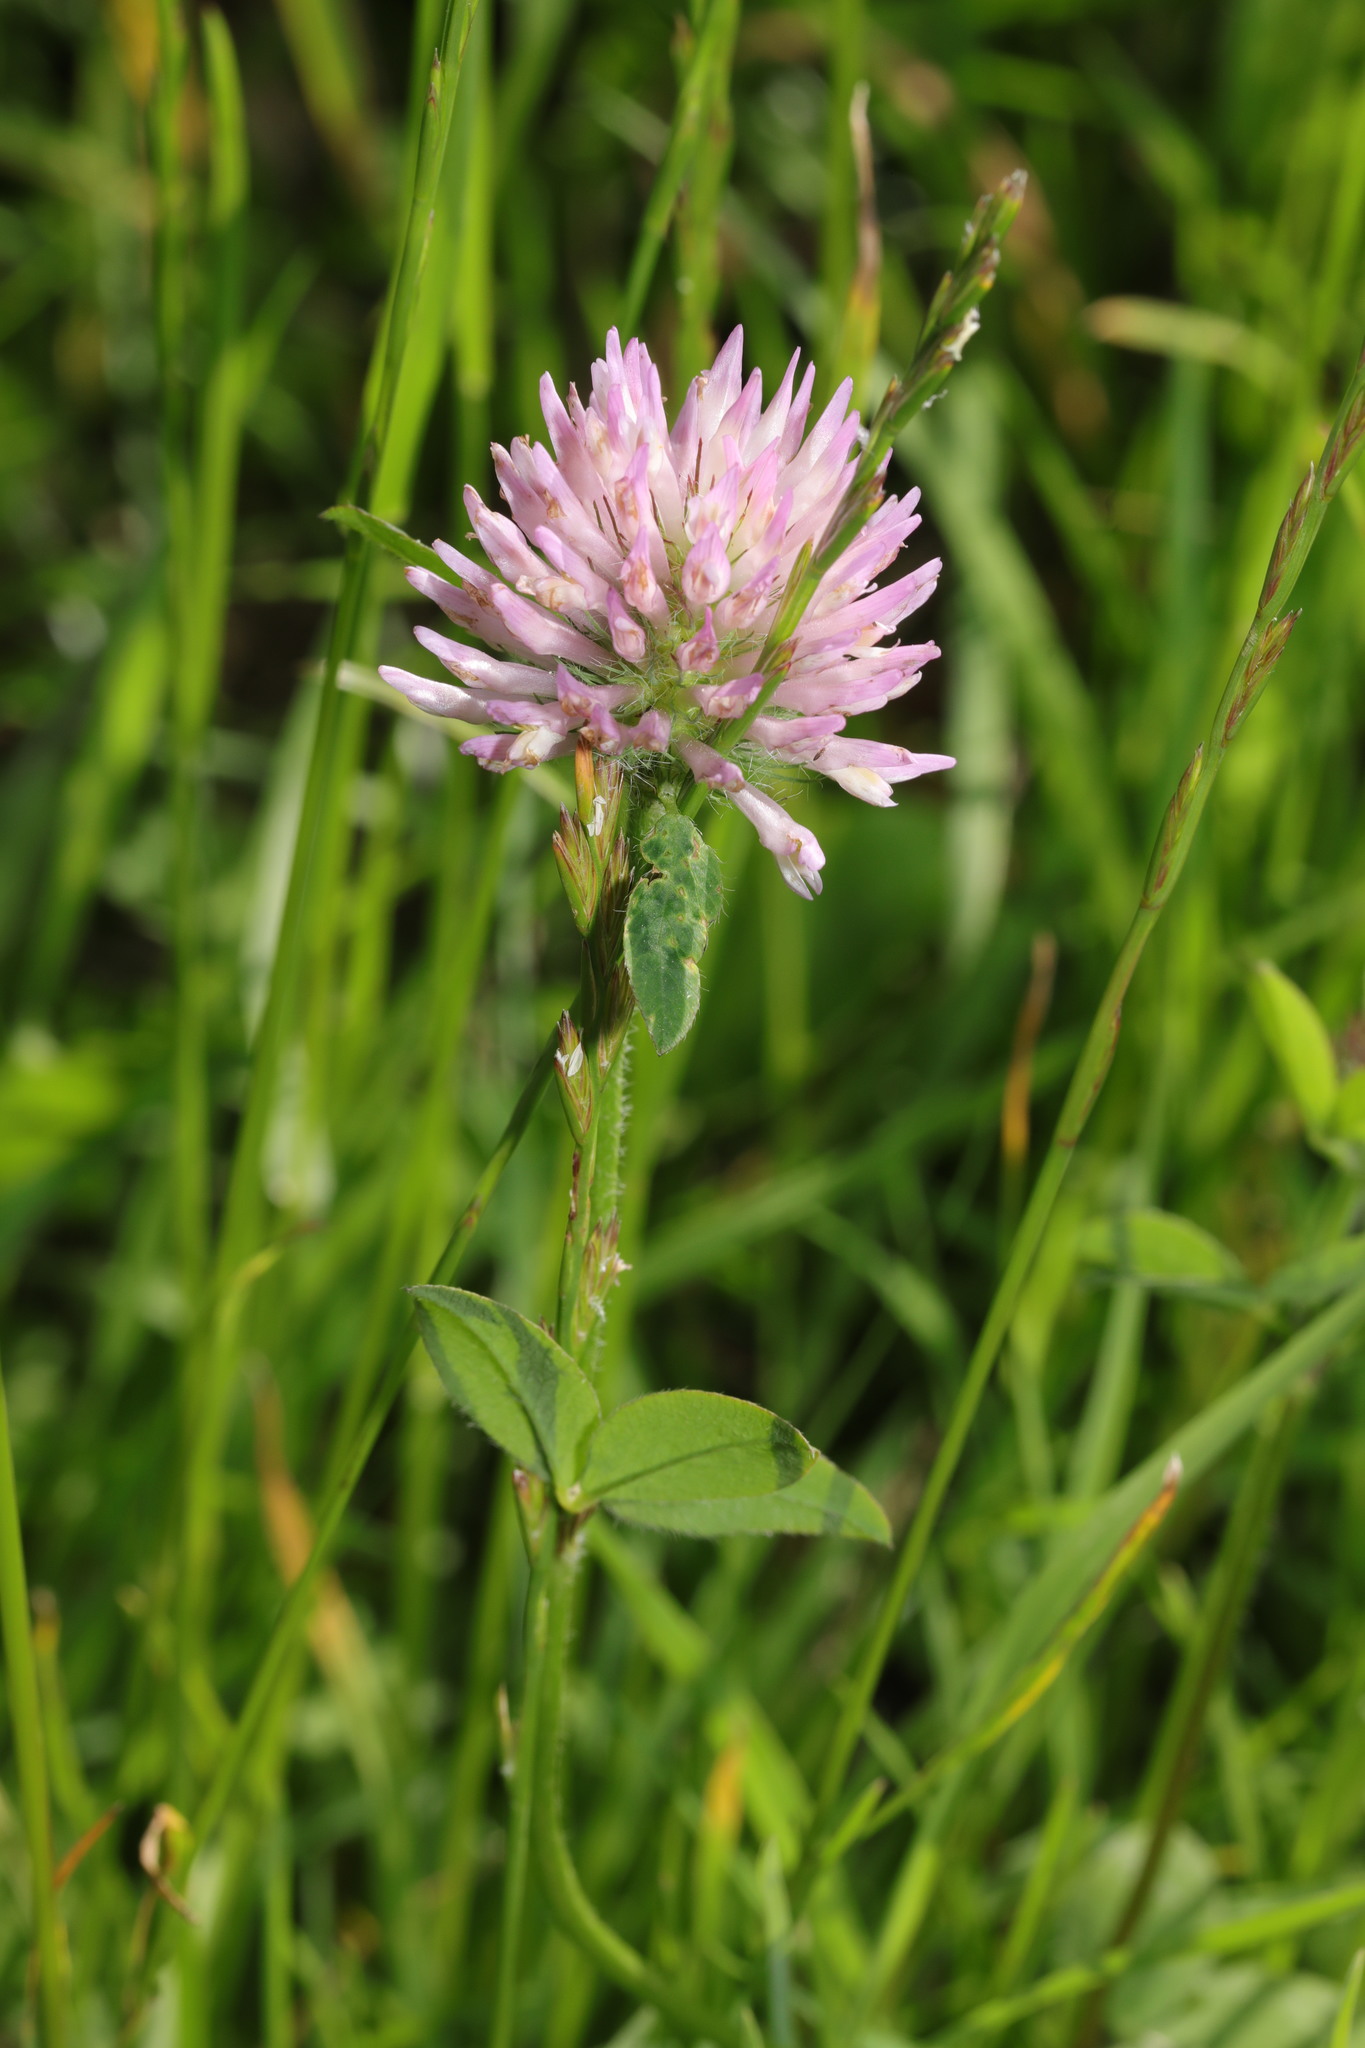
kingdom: Plantae
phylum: Tracheophyta
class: Magnoliopsida
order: Fabales
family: Fabaceae
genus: Trifolium
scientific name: Trifolium pratense
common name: Red clover
